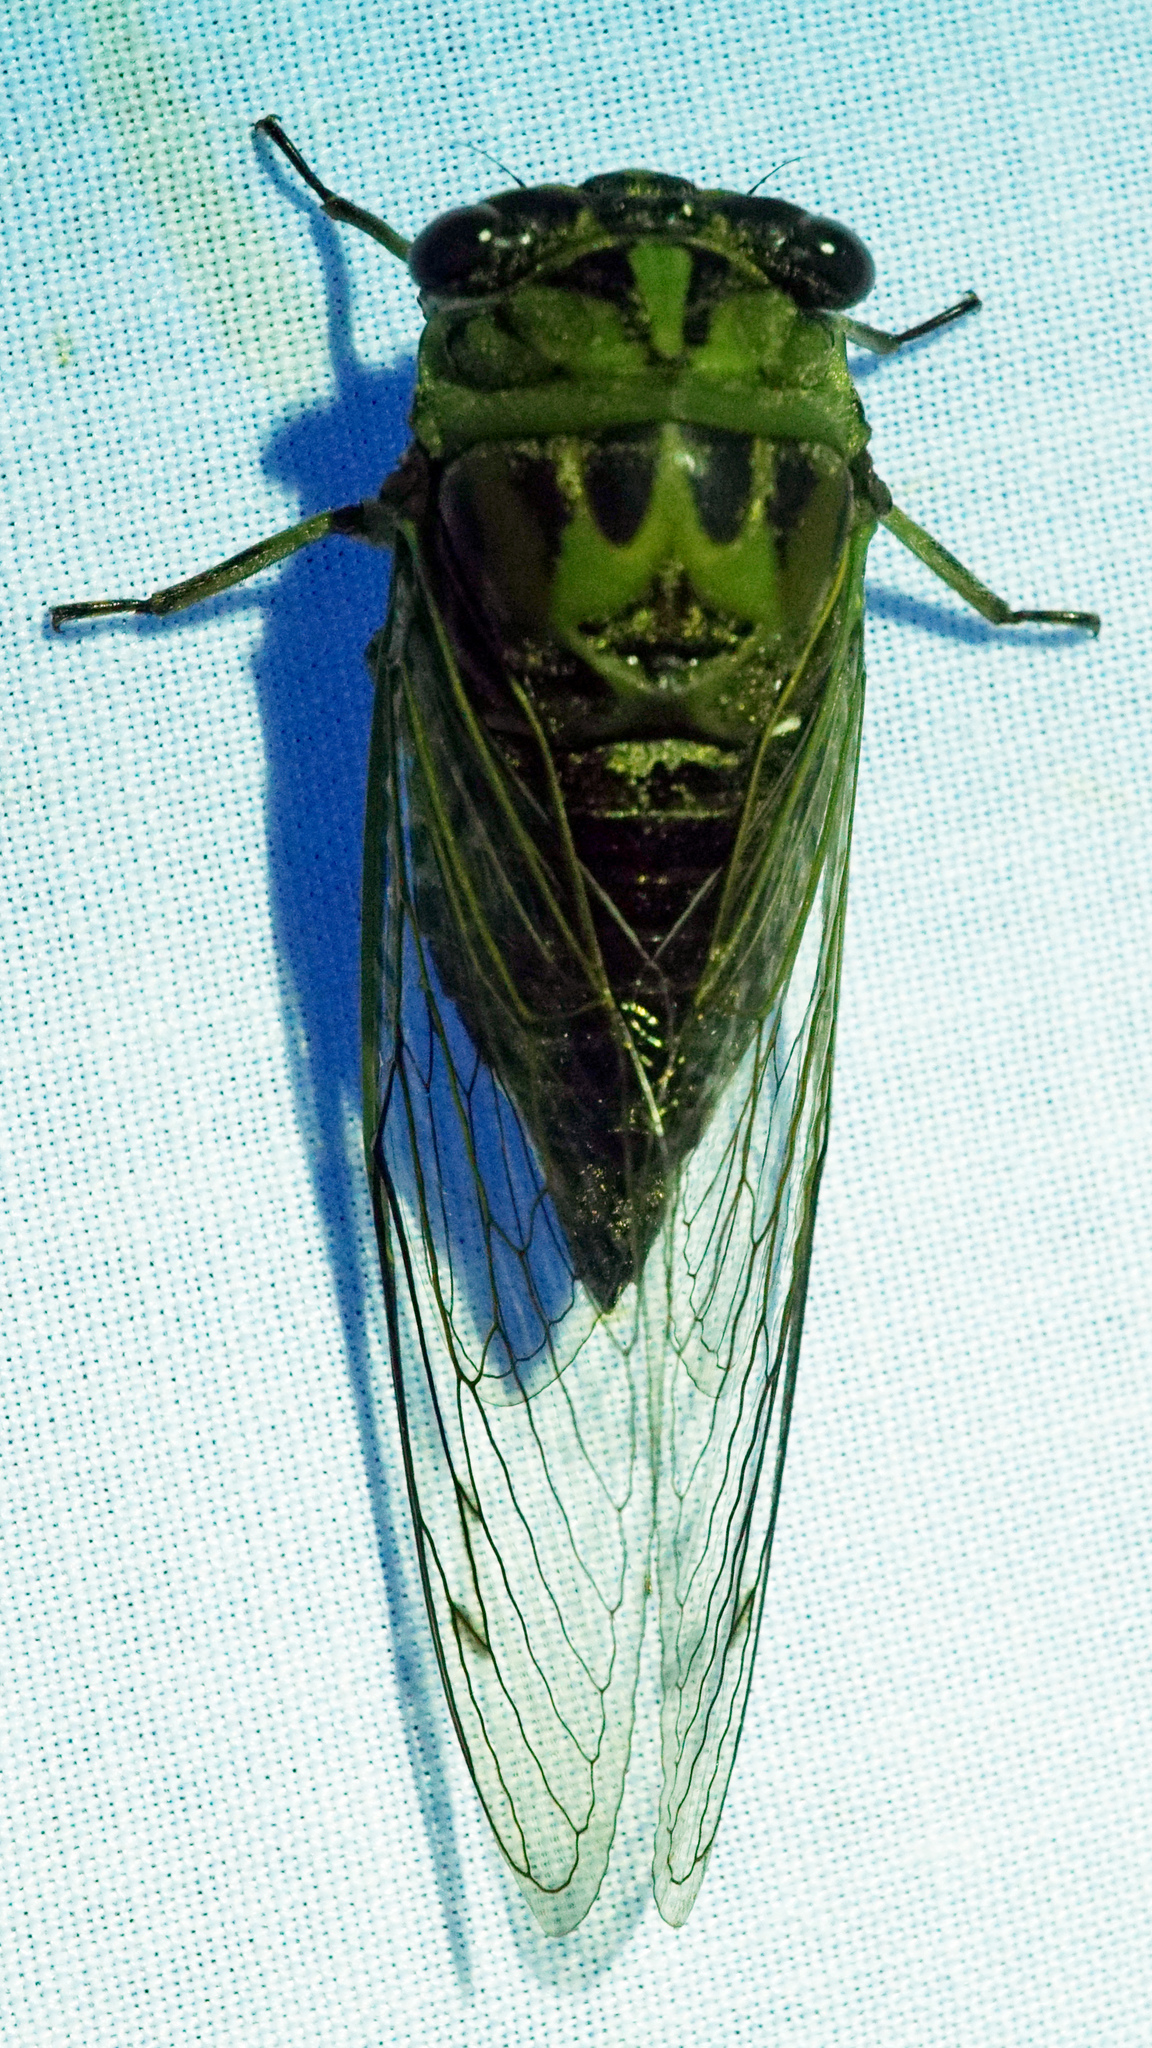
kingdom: Animalia
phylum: Arthropoda
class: Insecta
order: Hemiptera
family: Cicadidae
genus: Neotibicen
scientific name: Neotibicen winnemanna
